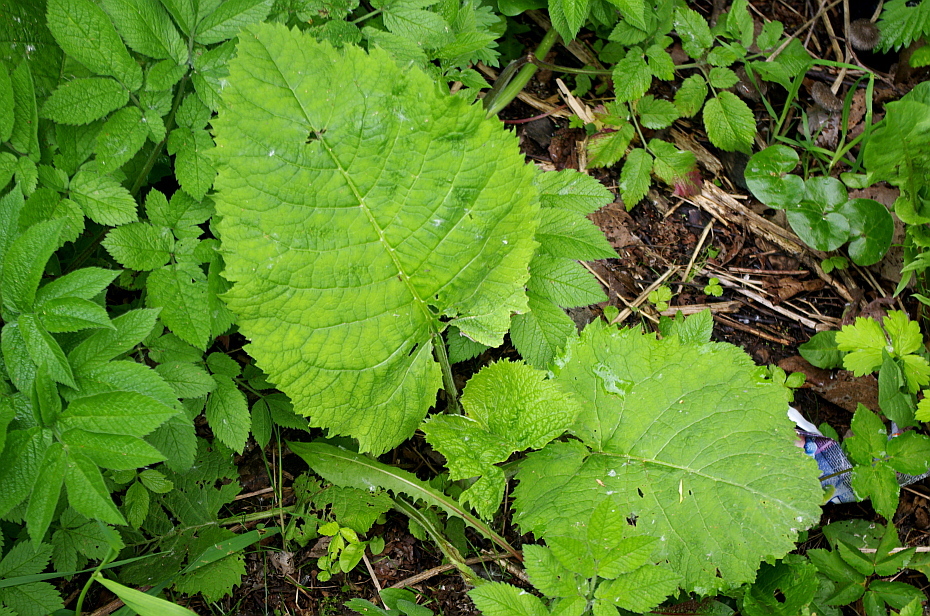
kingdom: Plantae
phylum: Tracheophyta
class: Magnoliopsida
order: Asterales
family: Asteraceae
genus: Telekia
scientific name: Telekia speciosa
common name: Yellow oxeye
